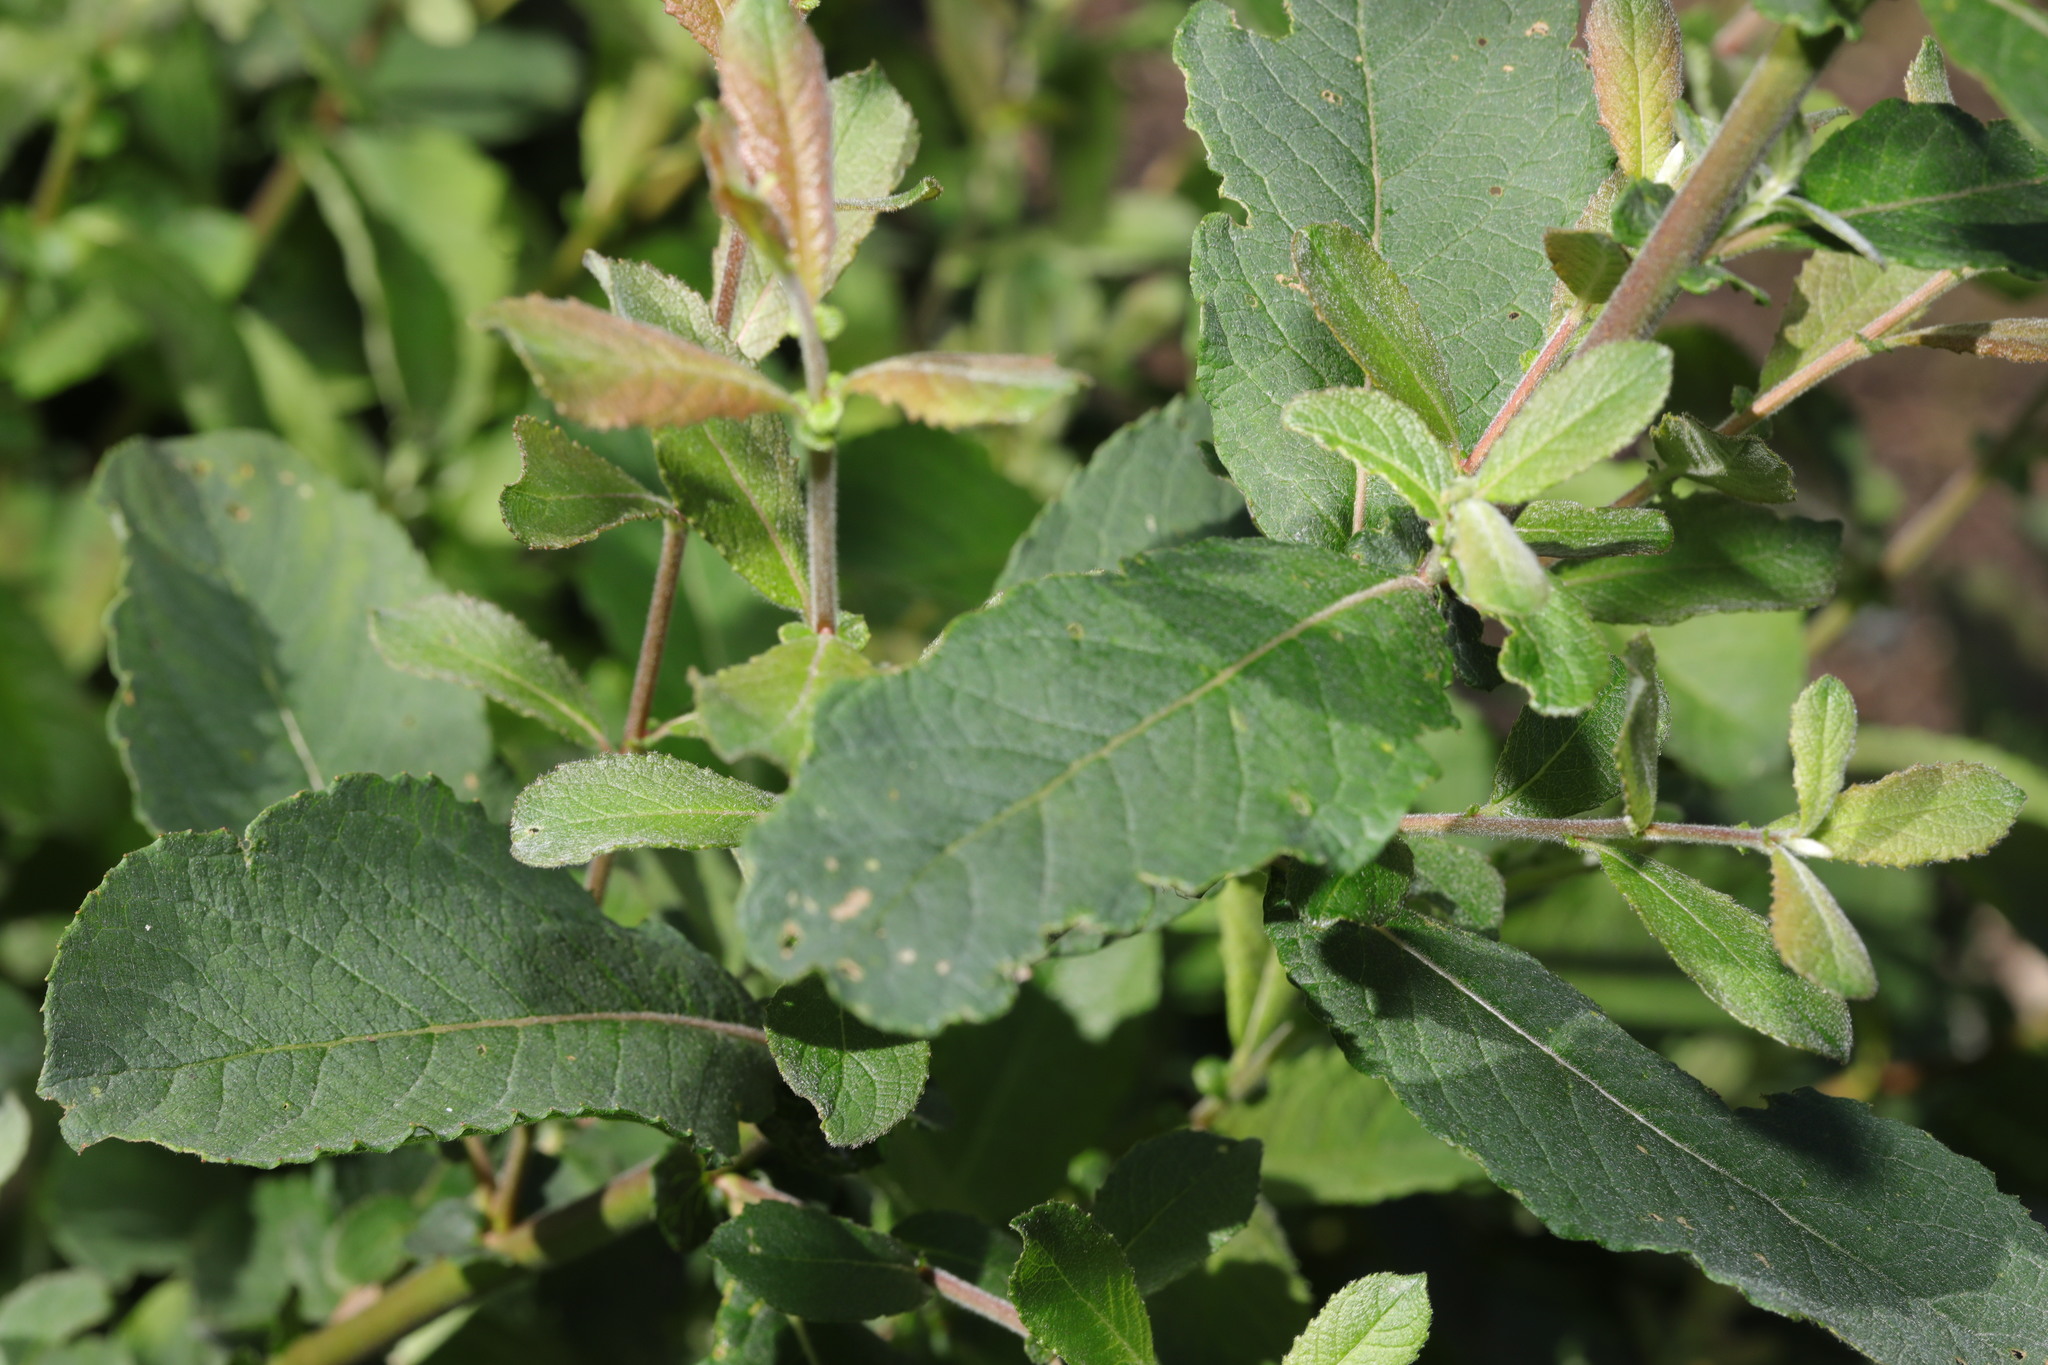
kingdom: Plantae
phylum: Tracheophyta
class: Magnoliopsida
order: Malpighiales
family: Salicaceae
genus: Salix
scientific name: Salix cinerea
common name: Common sallow
